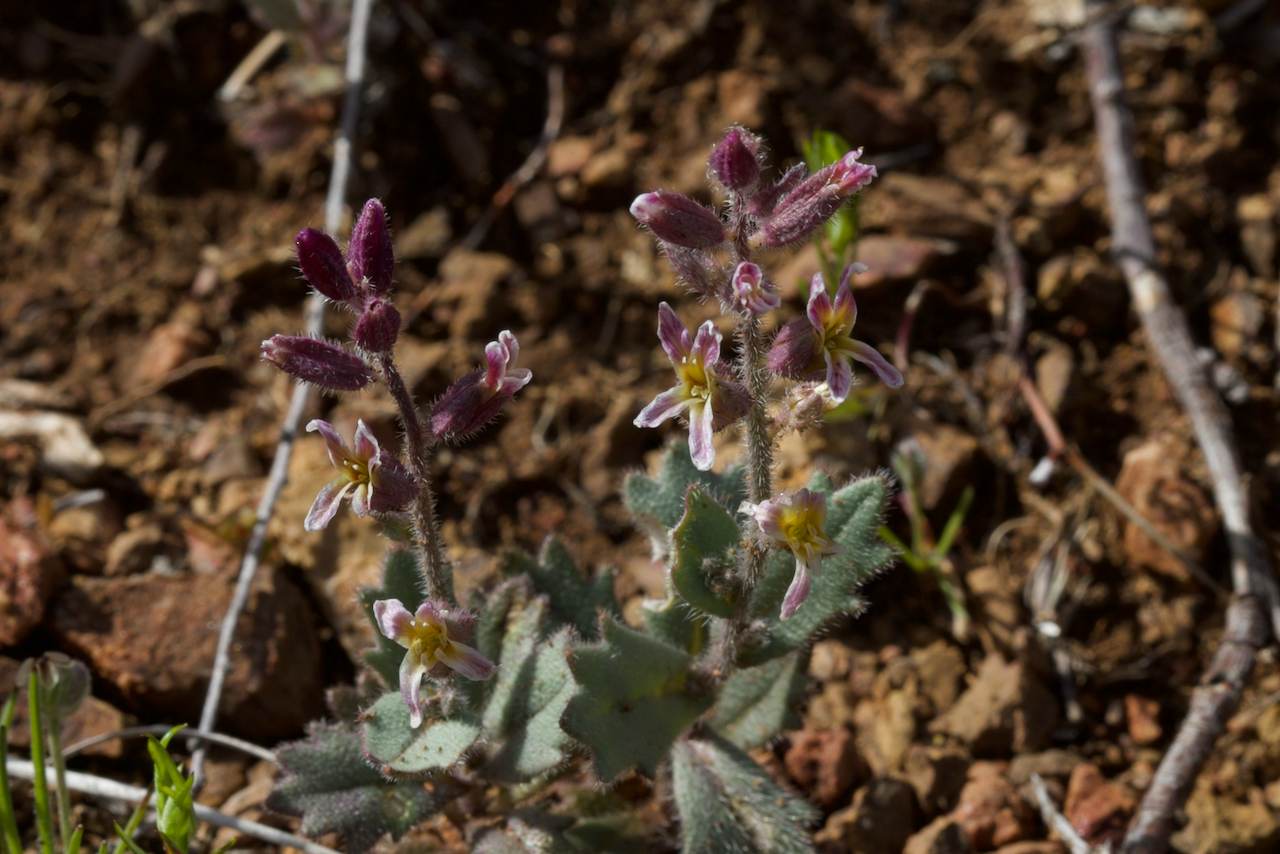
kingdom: Plantae
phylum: Tracheophyta
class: Magnoliopsida
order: Brassicales
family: Brassicaceae
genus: Streptanthus
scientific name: Streptanthus hispidus
